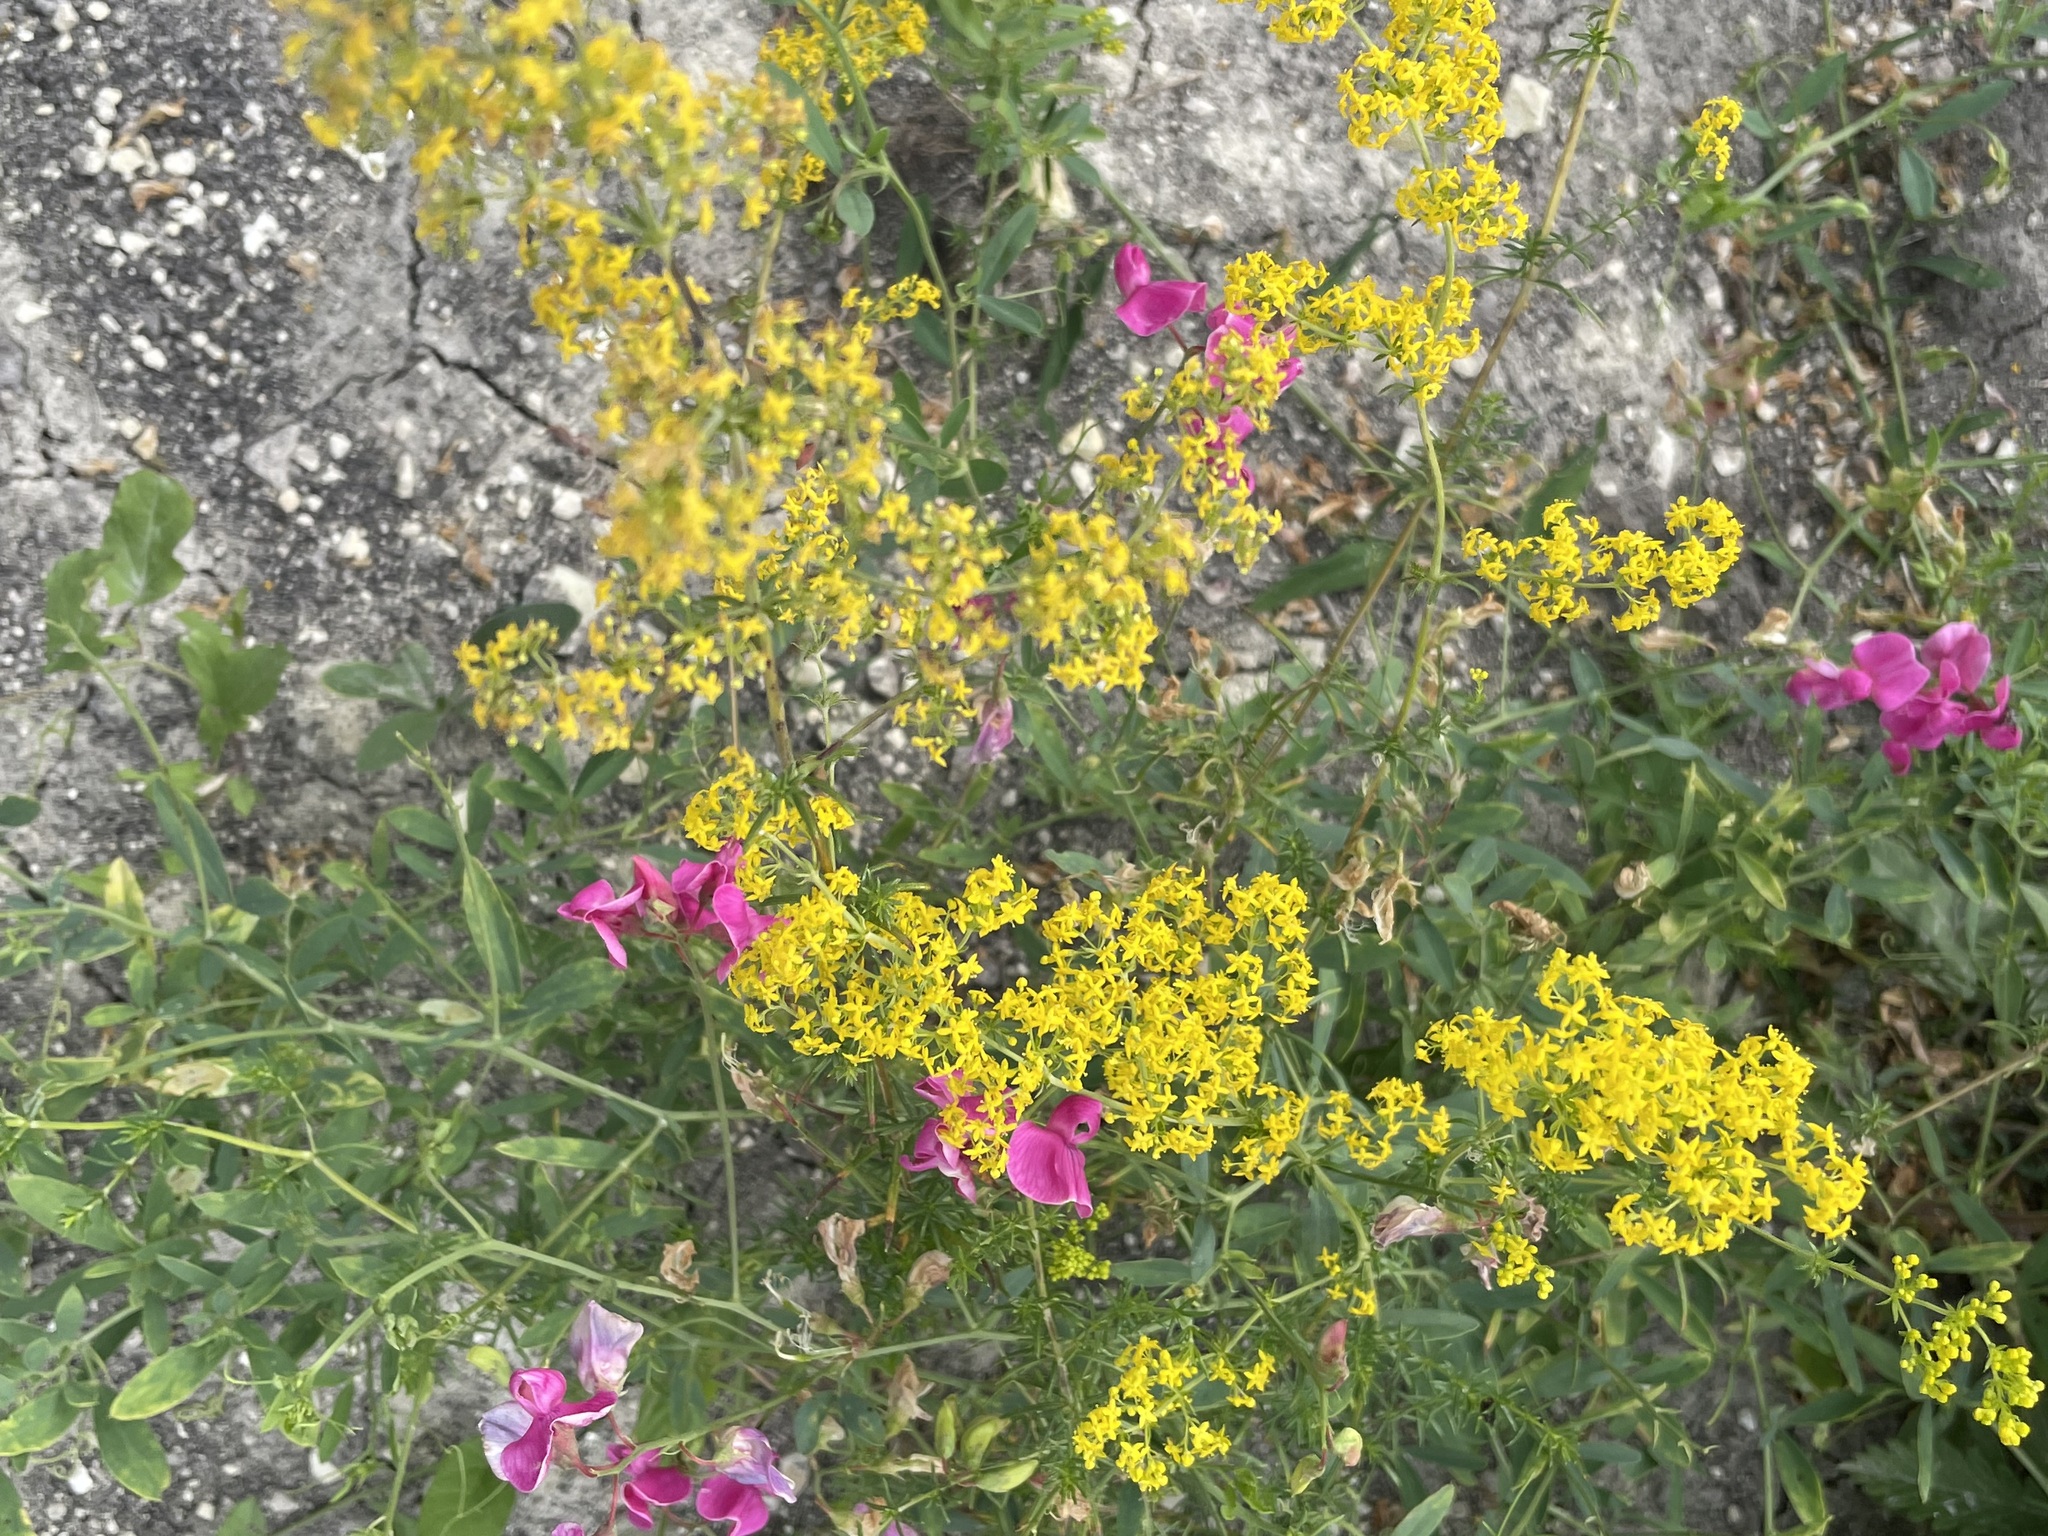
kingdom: Plantae
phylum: Tracheophyta
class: Magnoliopsida
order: Gentianales
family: Rubiaceae
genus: Galium
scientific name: Galium verum
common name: Lady's bedstraw
